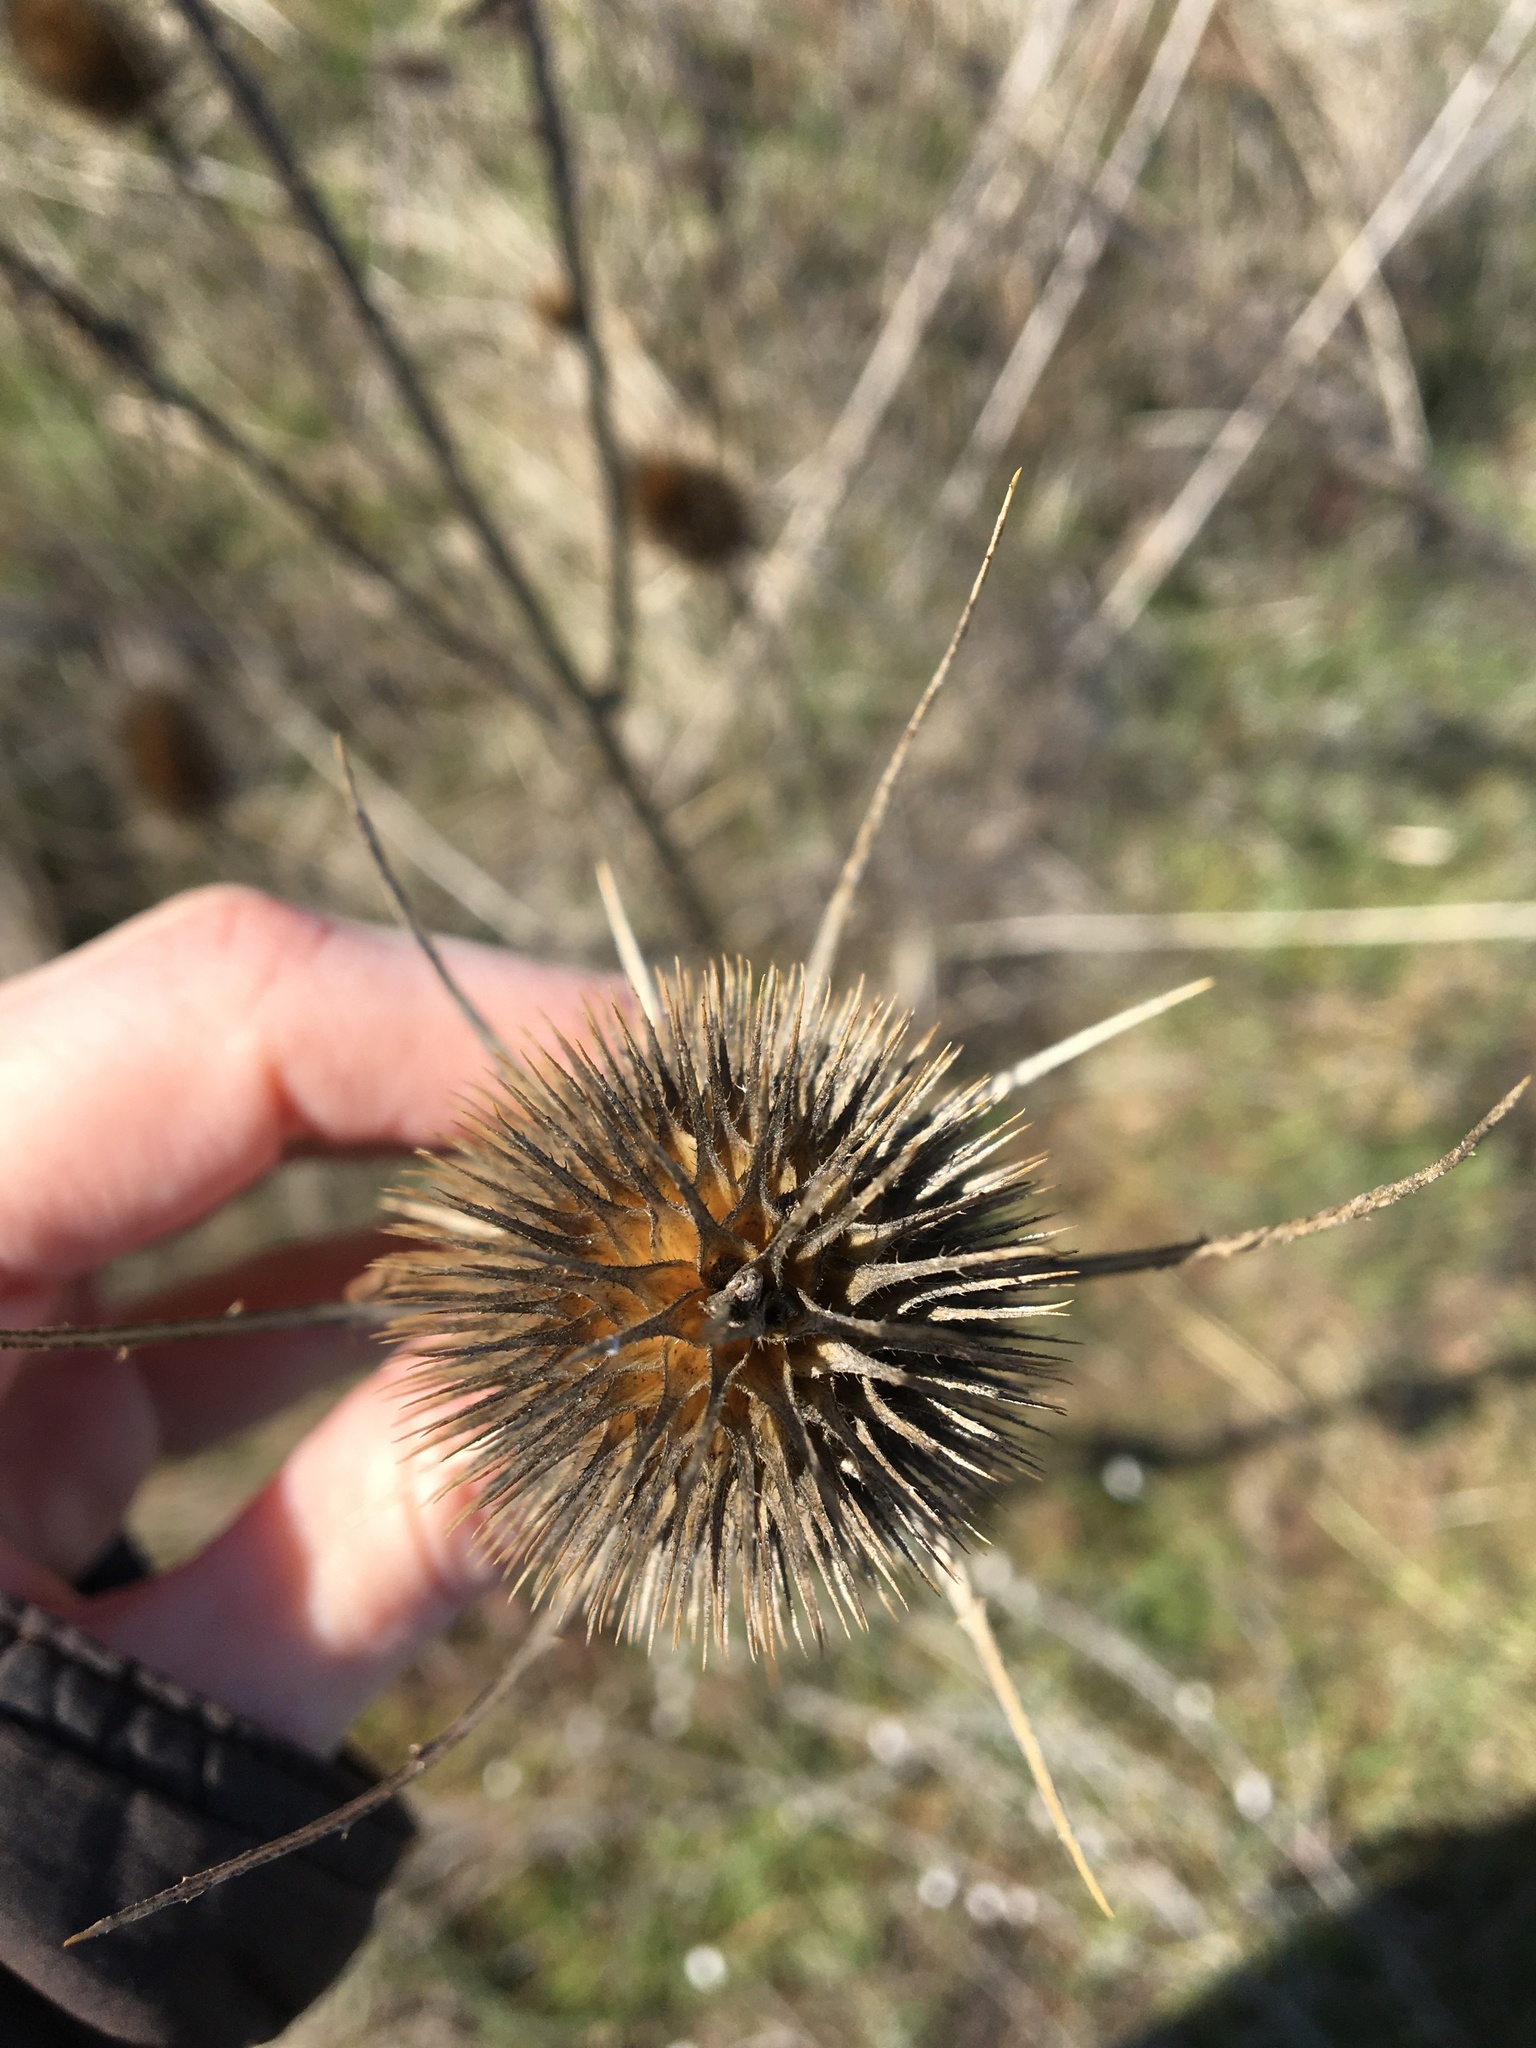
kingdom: Plantae
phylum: Tracheophyta
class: Magnoliopsida
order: Dipsacales
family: Caprifoliaceae
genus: Dipsacus
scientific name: Dipsacus fullonum
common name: Teasel
